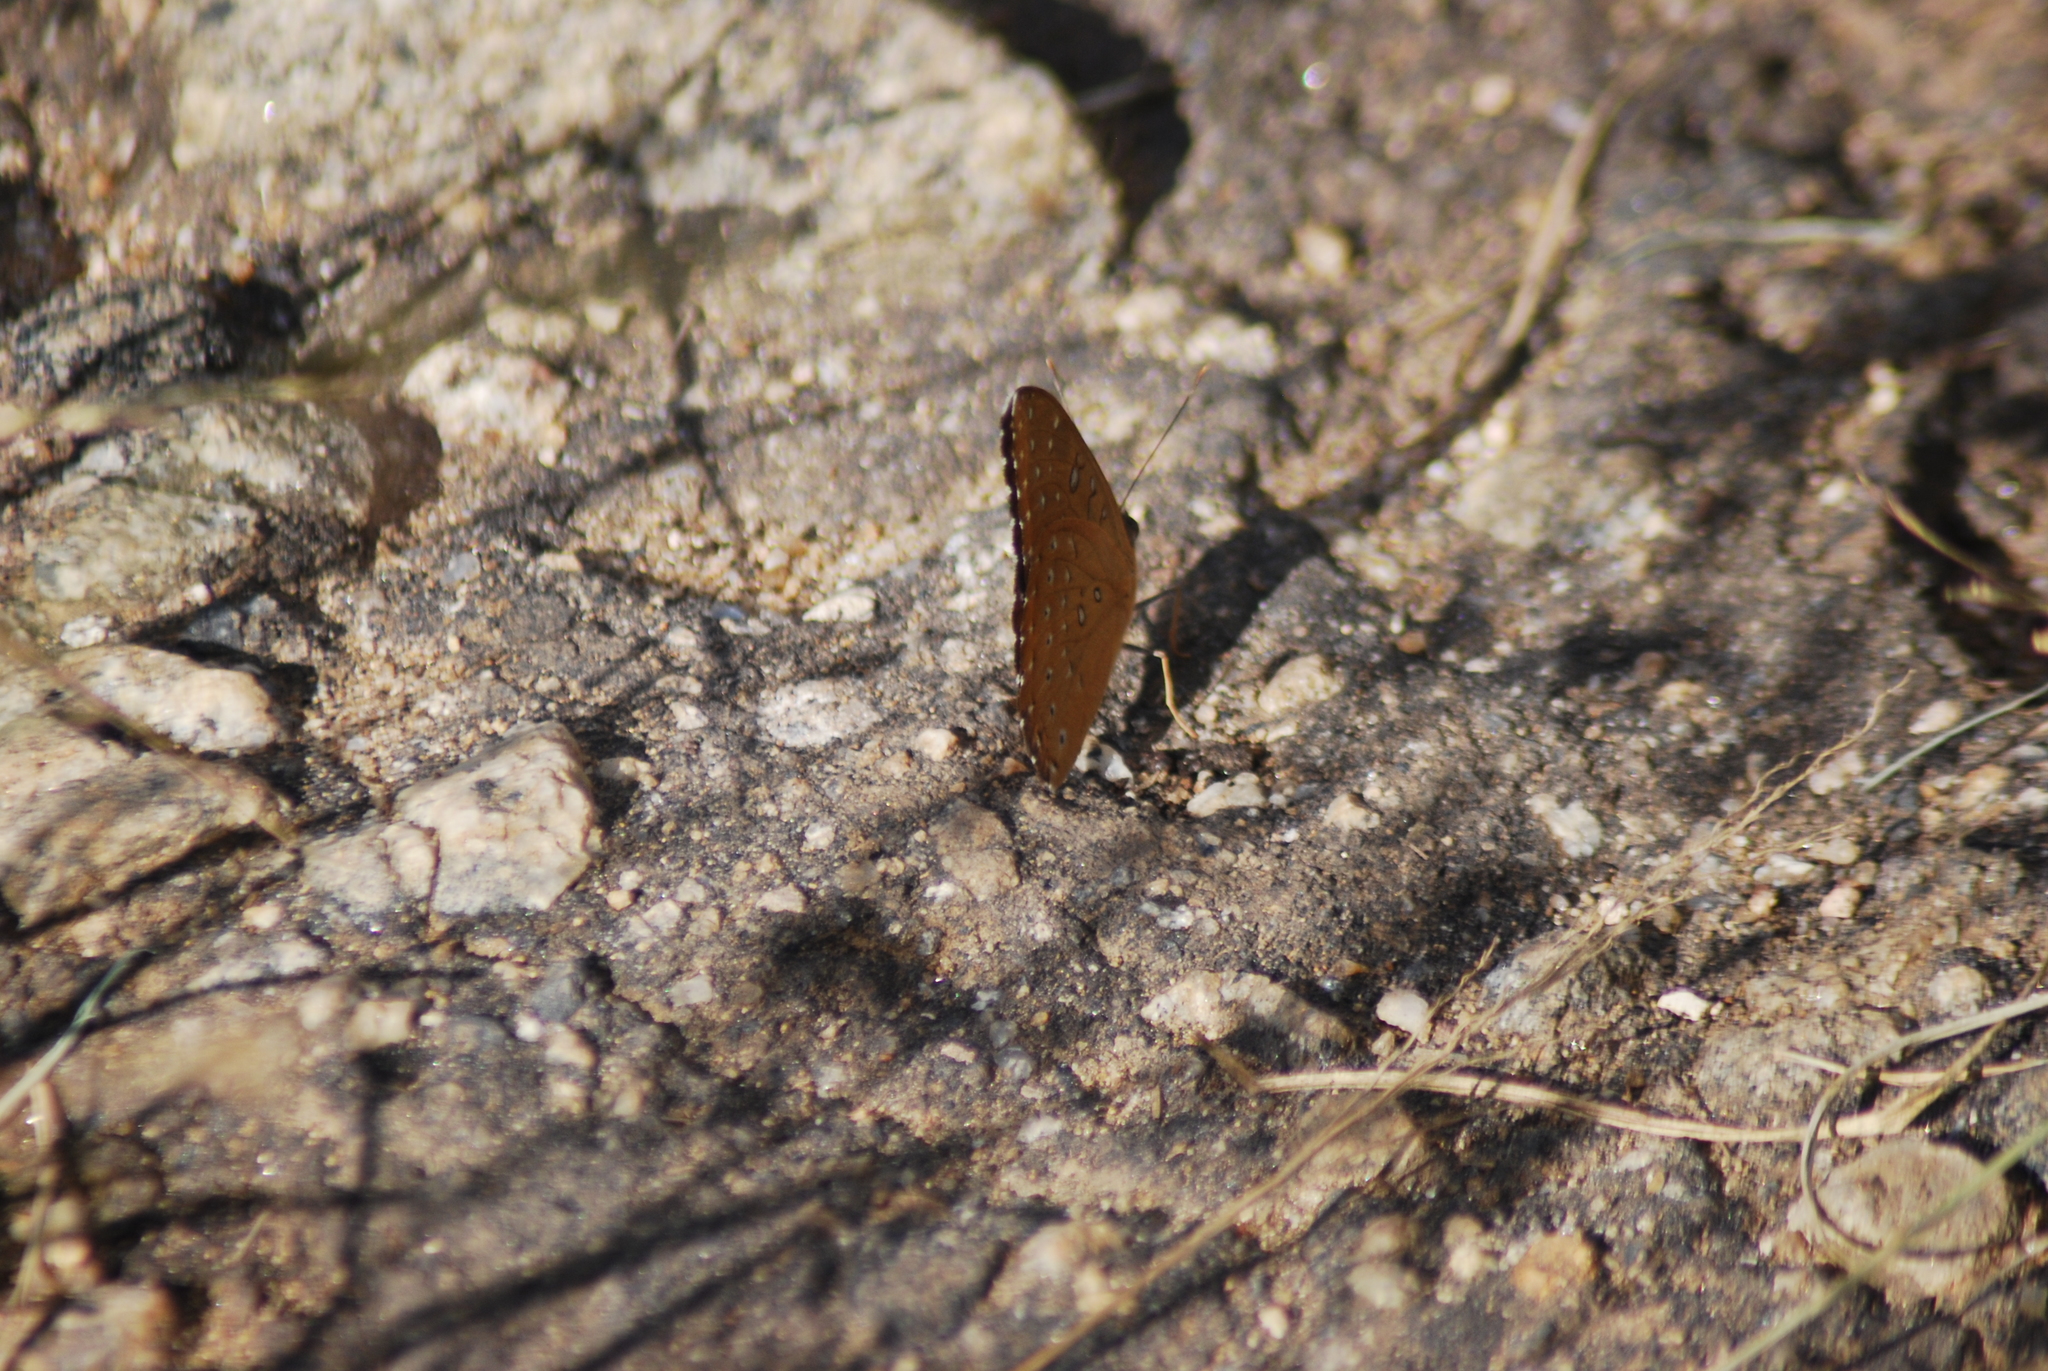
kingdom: Animalia
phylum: Arthropoda
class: Insecta
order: Lepidoptera
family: Nymphalidae
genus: Hamanumida
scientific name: Hamanumida daedalus
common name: Guinea-fowl butterfly
